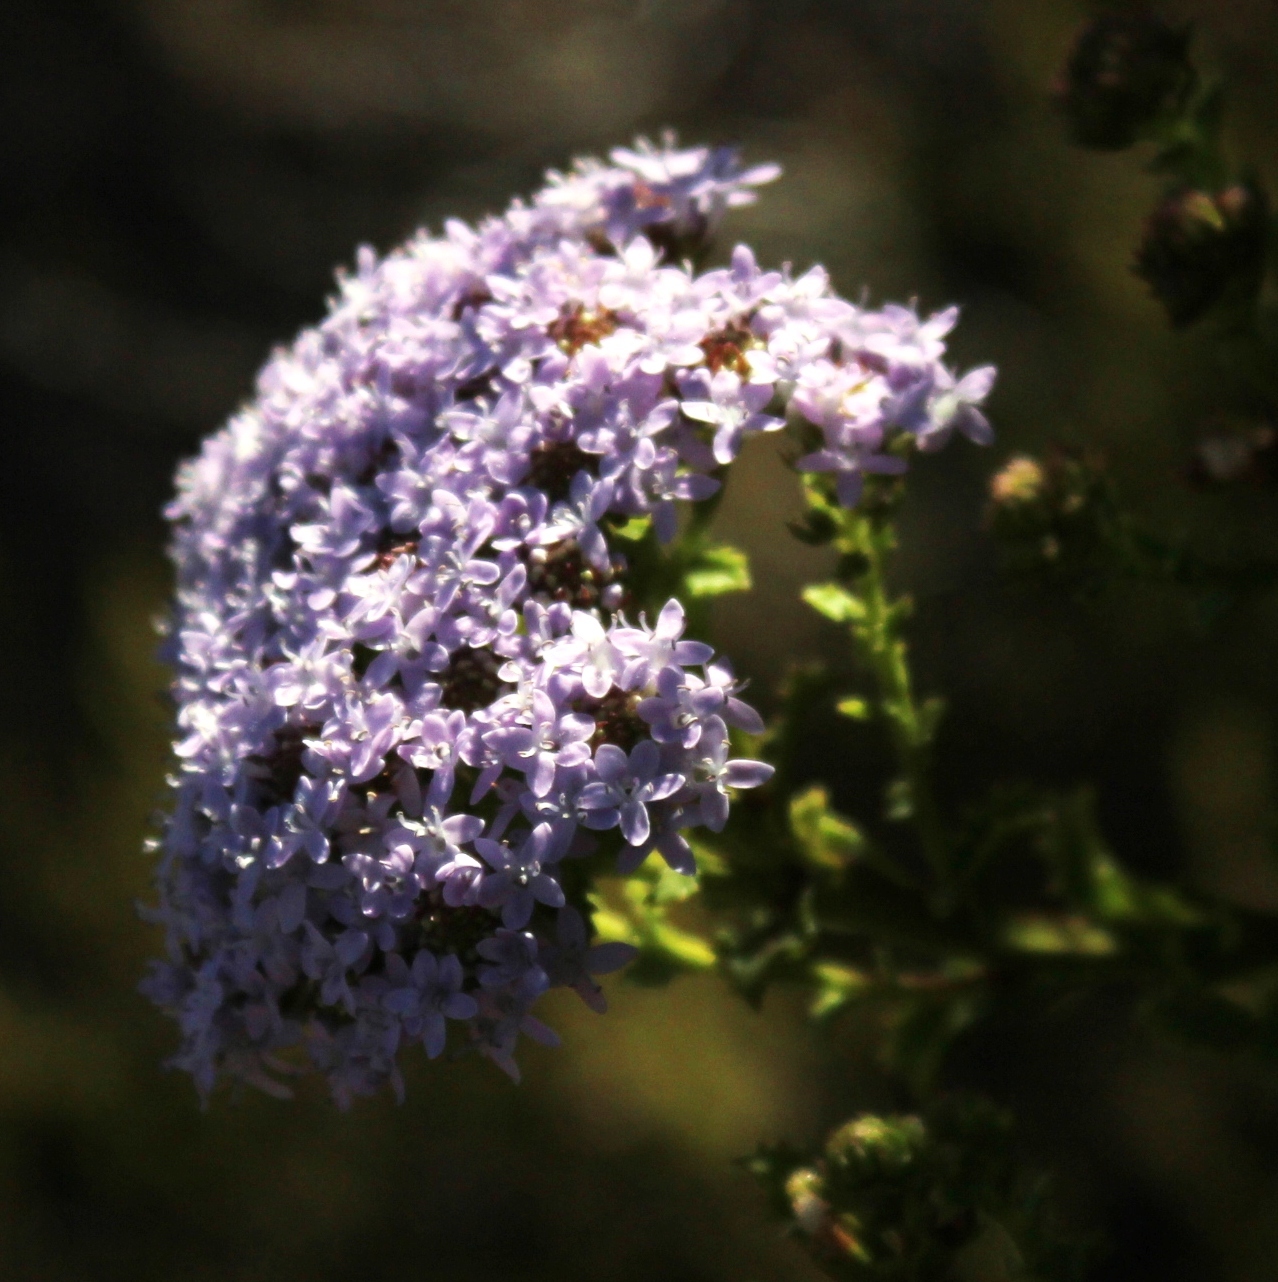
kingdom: Plantae
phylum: Tracheophyta
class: Magnoliopsida
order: Lamiales
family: Scrophulariaceae
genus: Pseudoselago
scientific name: Pseudoselago serrata
